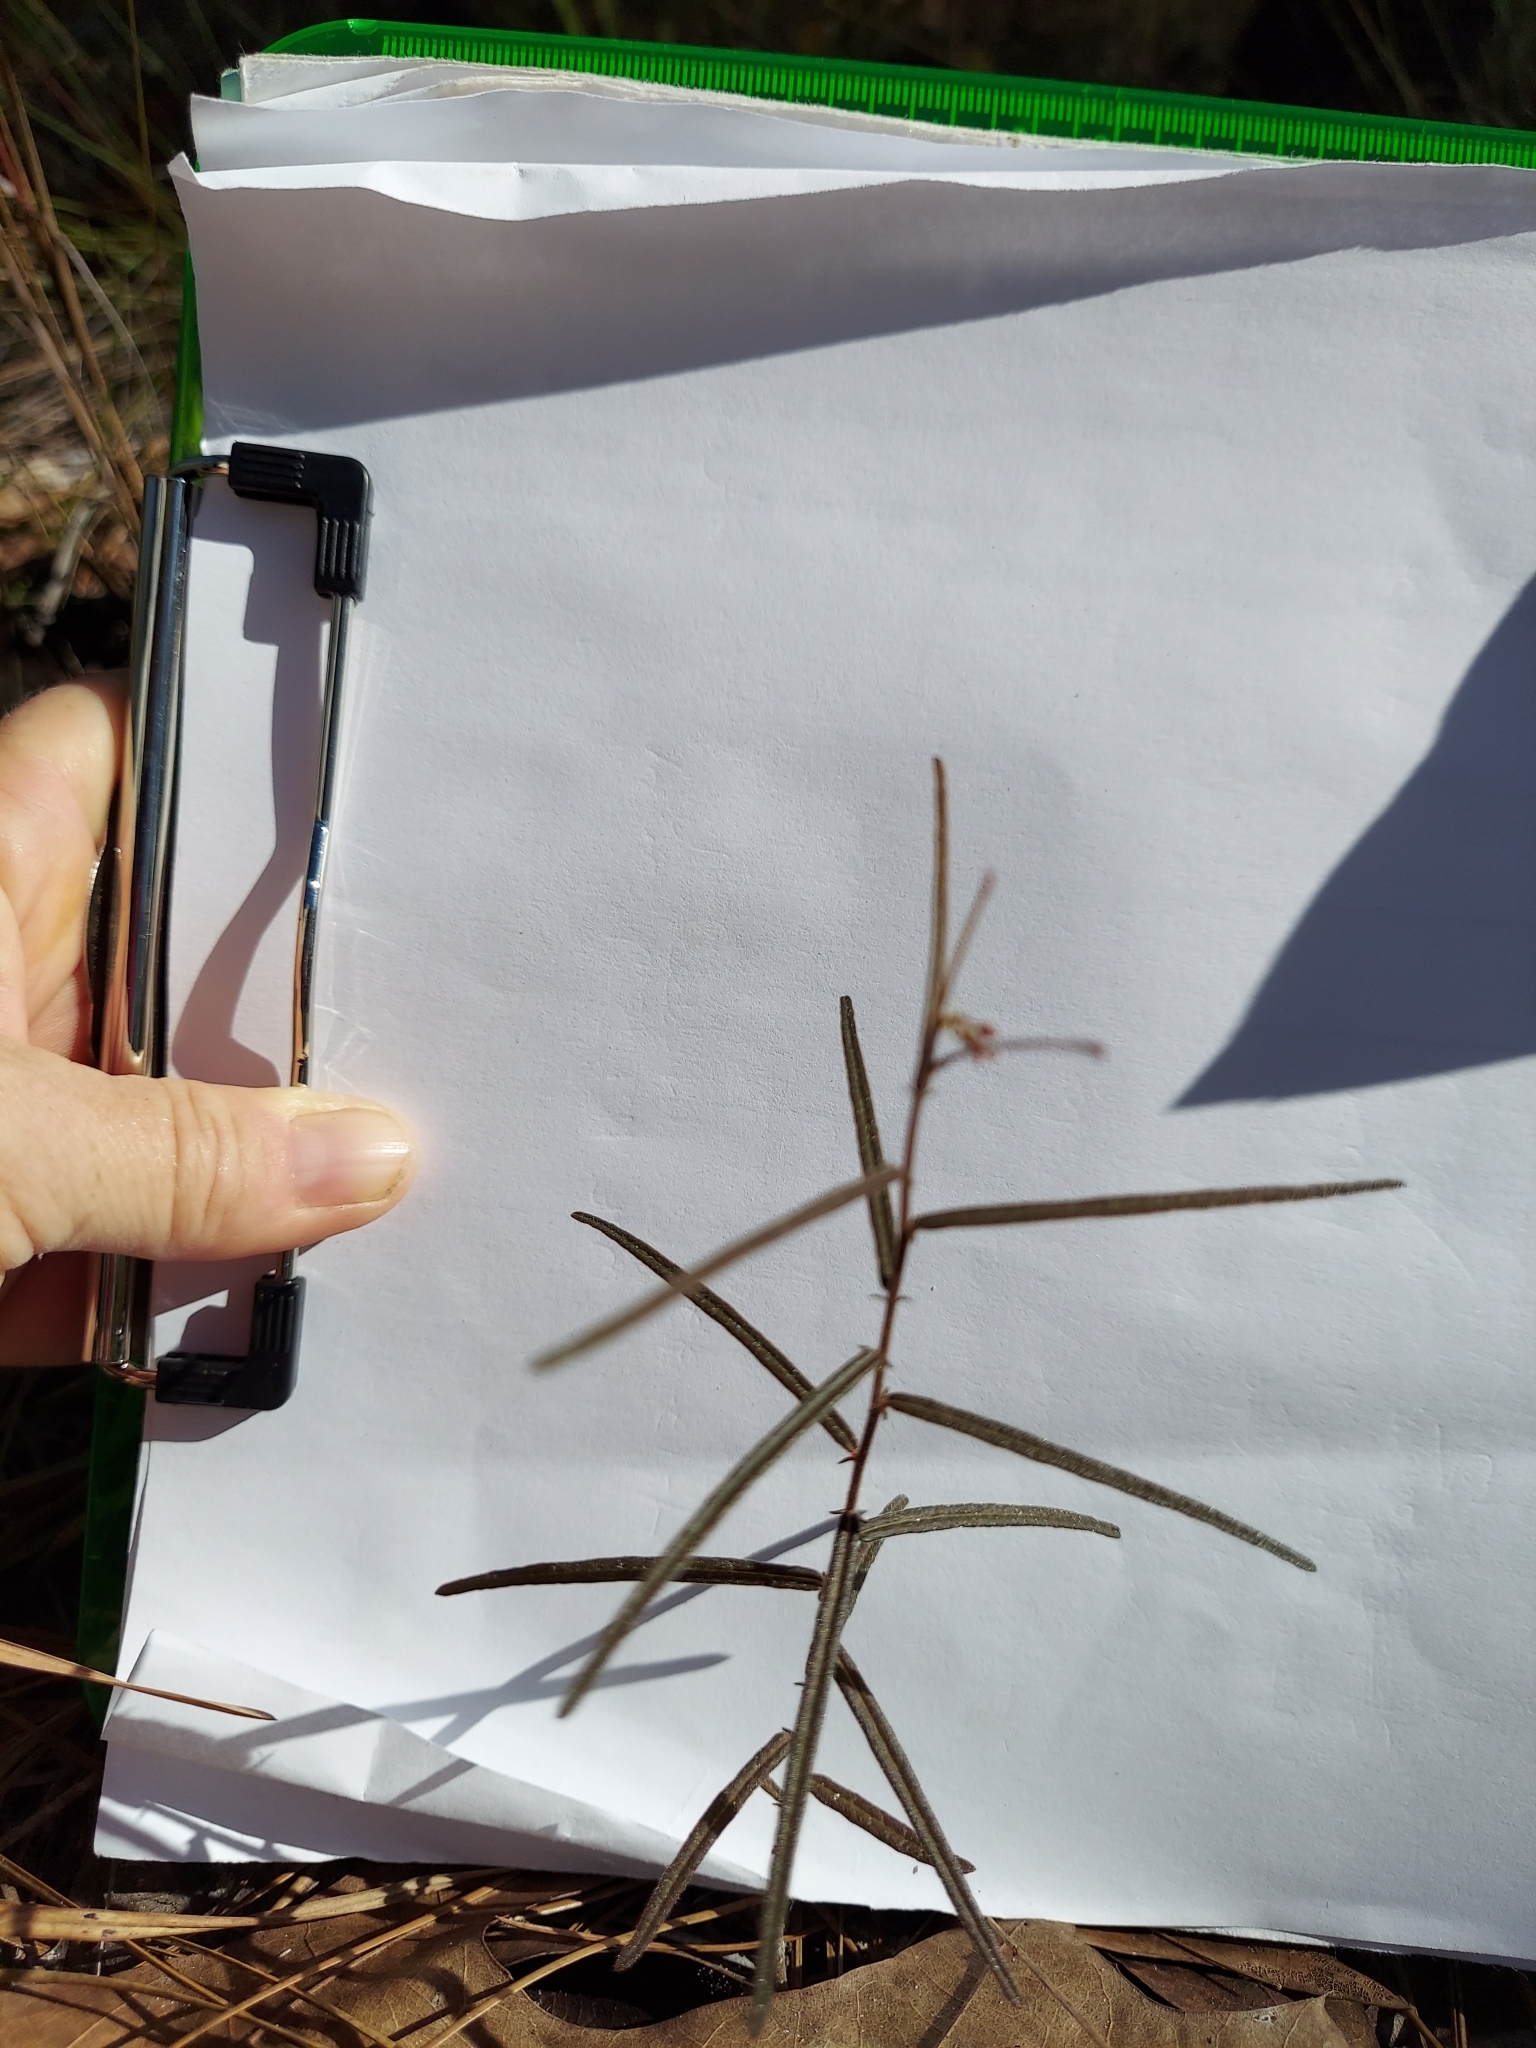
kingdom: Plantae
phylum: Tracheophyta
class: Magnoliopsida
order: Malpighiales
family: Euphorbiaceae
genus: Tragia
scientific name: Tragia urens
